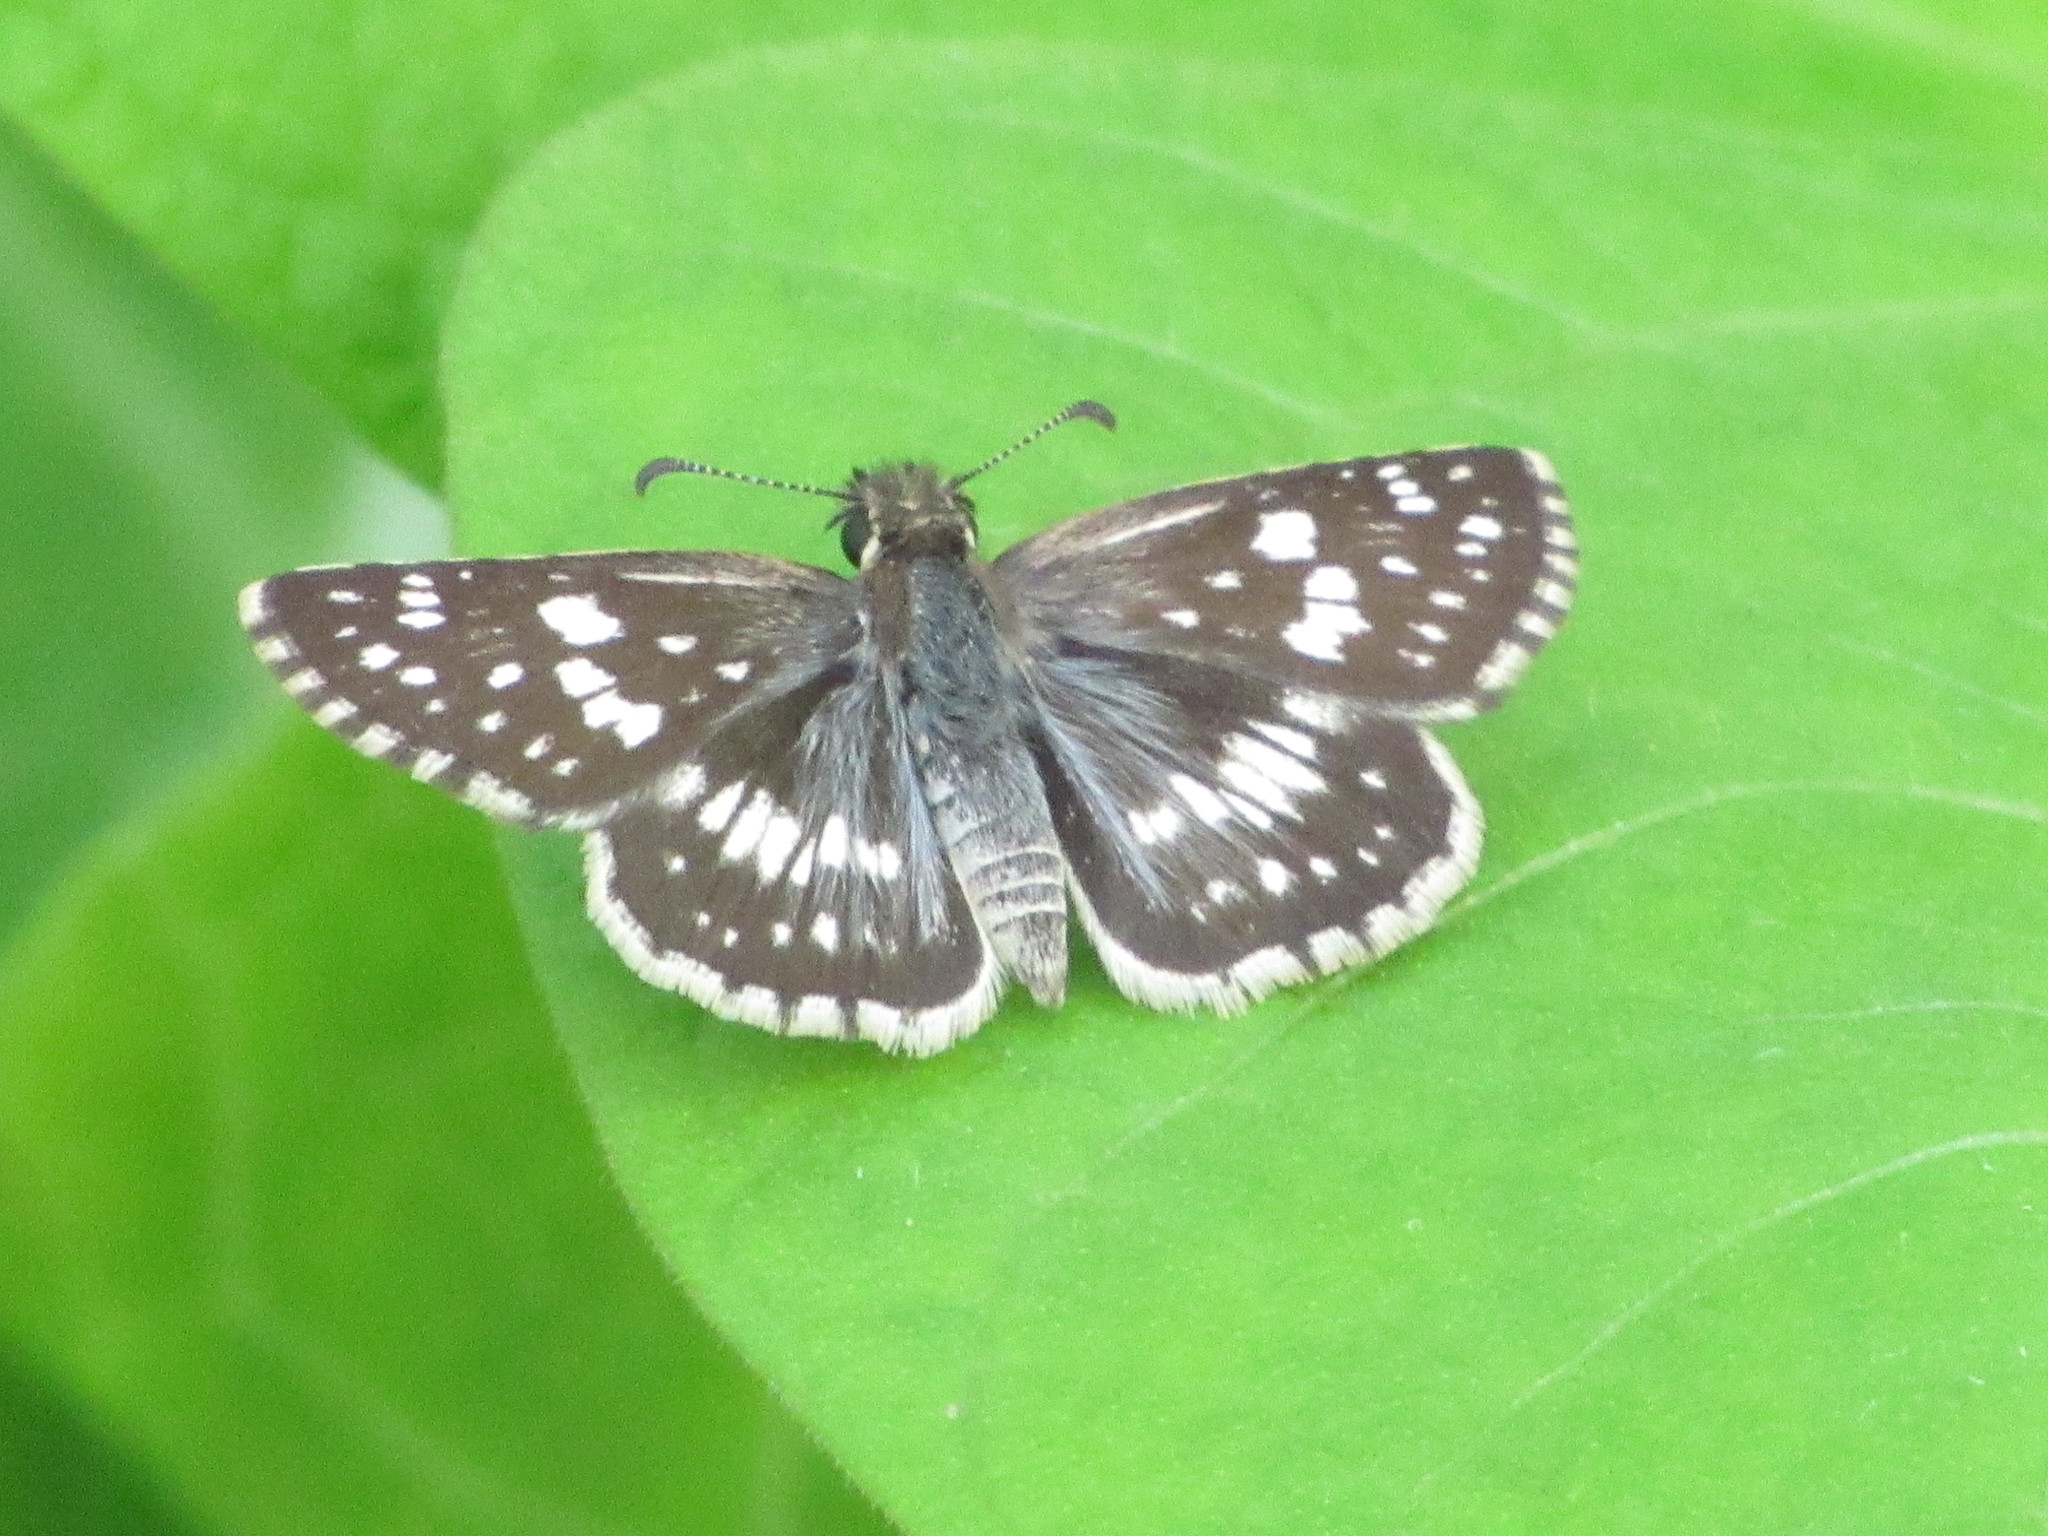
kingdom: Animalia
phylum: Arthropoda
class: Insecta
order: Lepidoptera
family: Hesperiidae
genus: Burnsius
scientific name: Burnsius orcynoides
